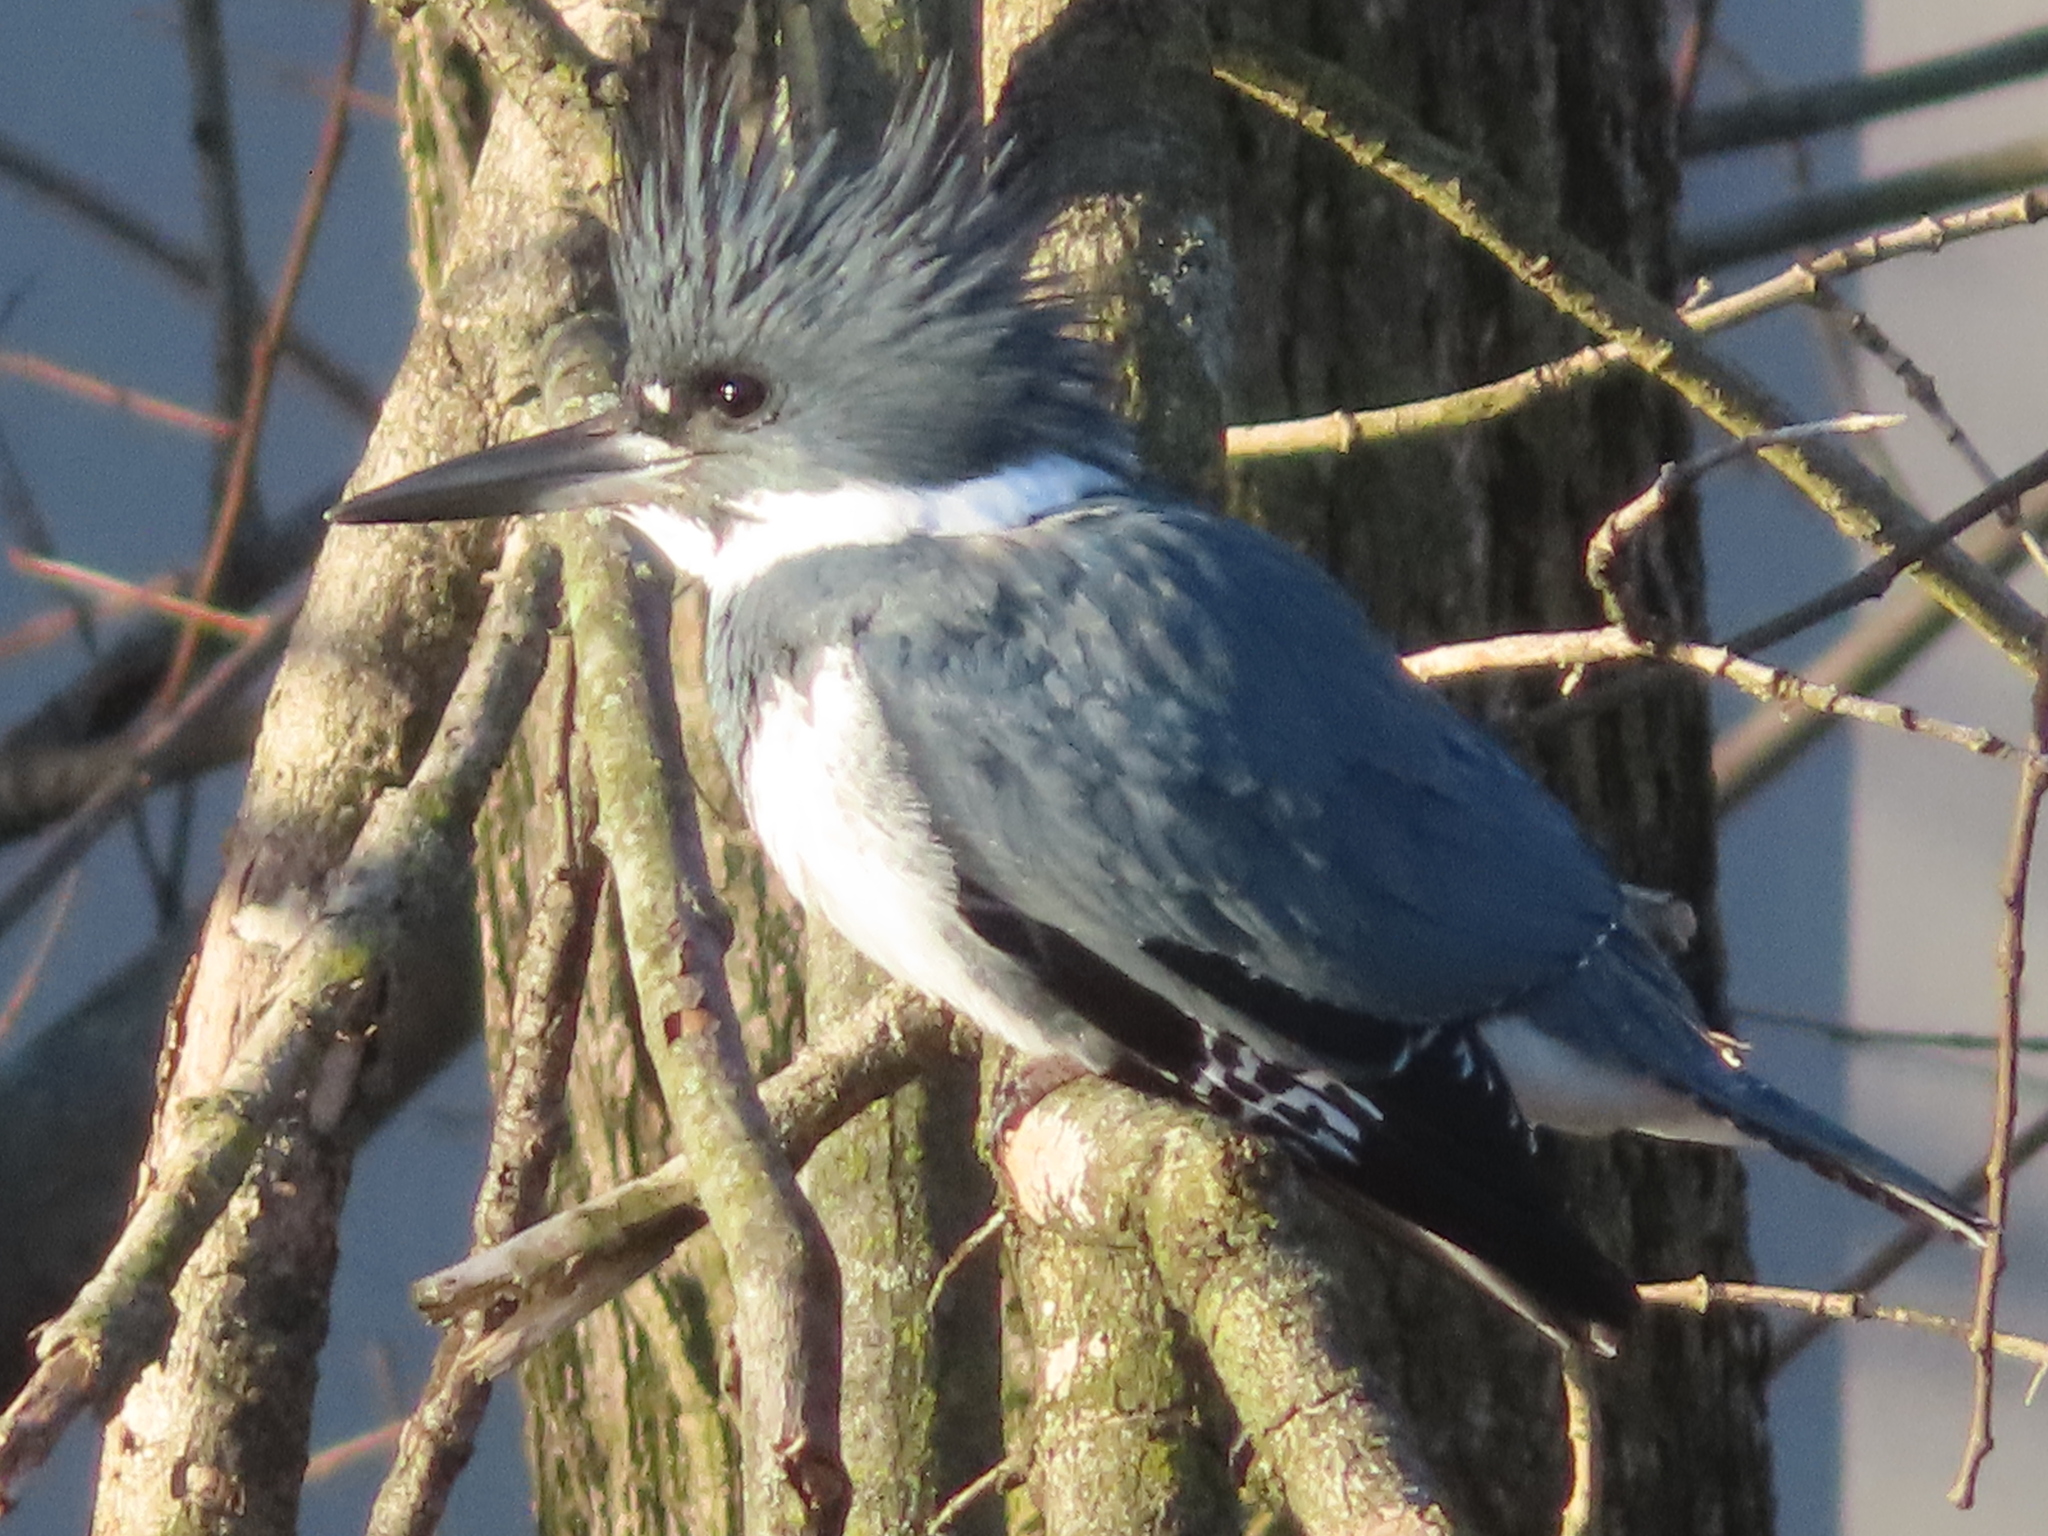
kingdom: Animalia
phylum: Chordata
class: Aves
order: Coraciiformes
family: Alcedinidae
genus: Megaceryle
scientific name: Megaceryle alcyon
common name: Belted kingfisher
